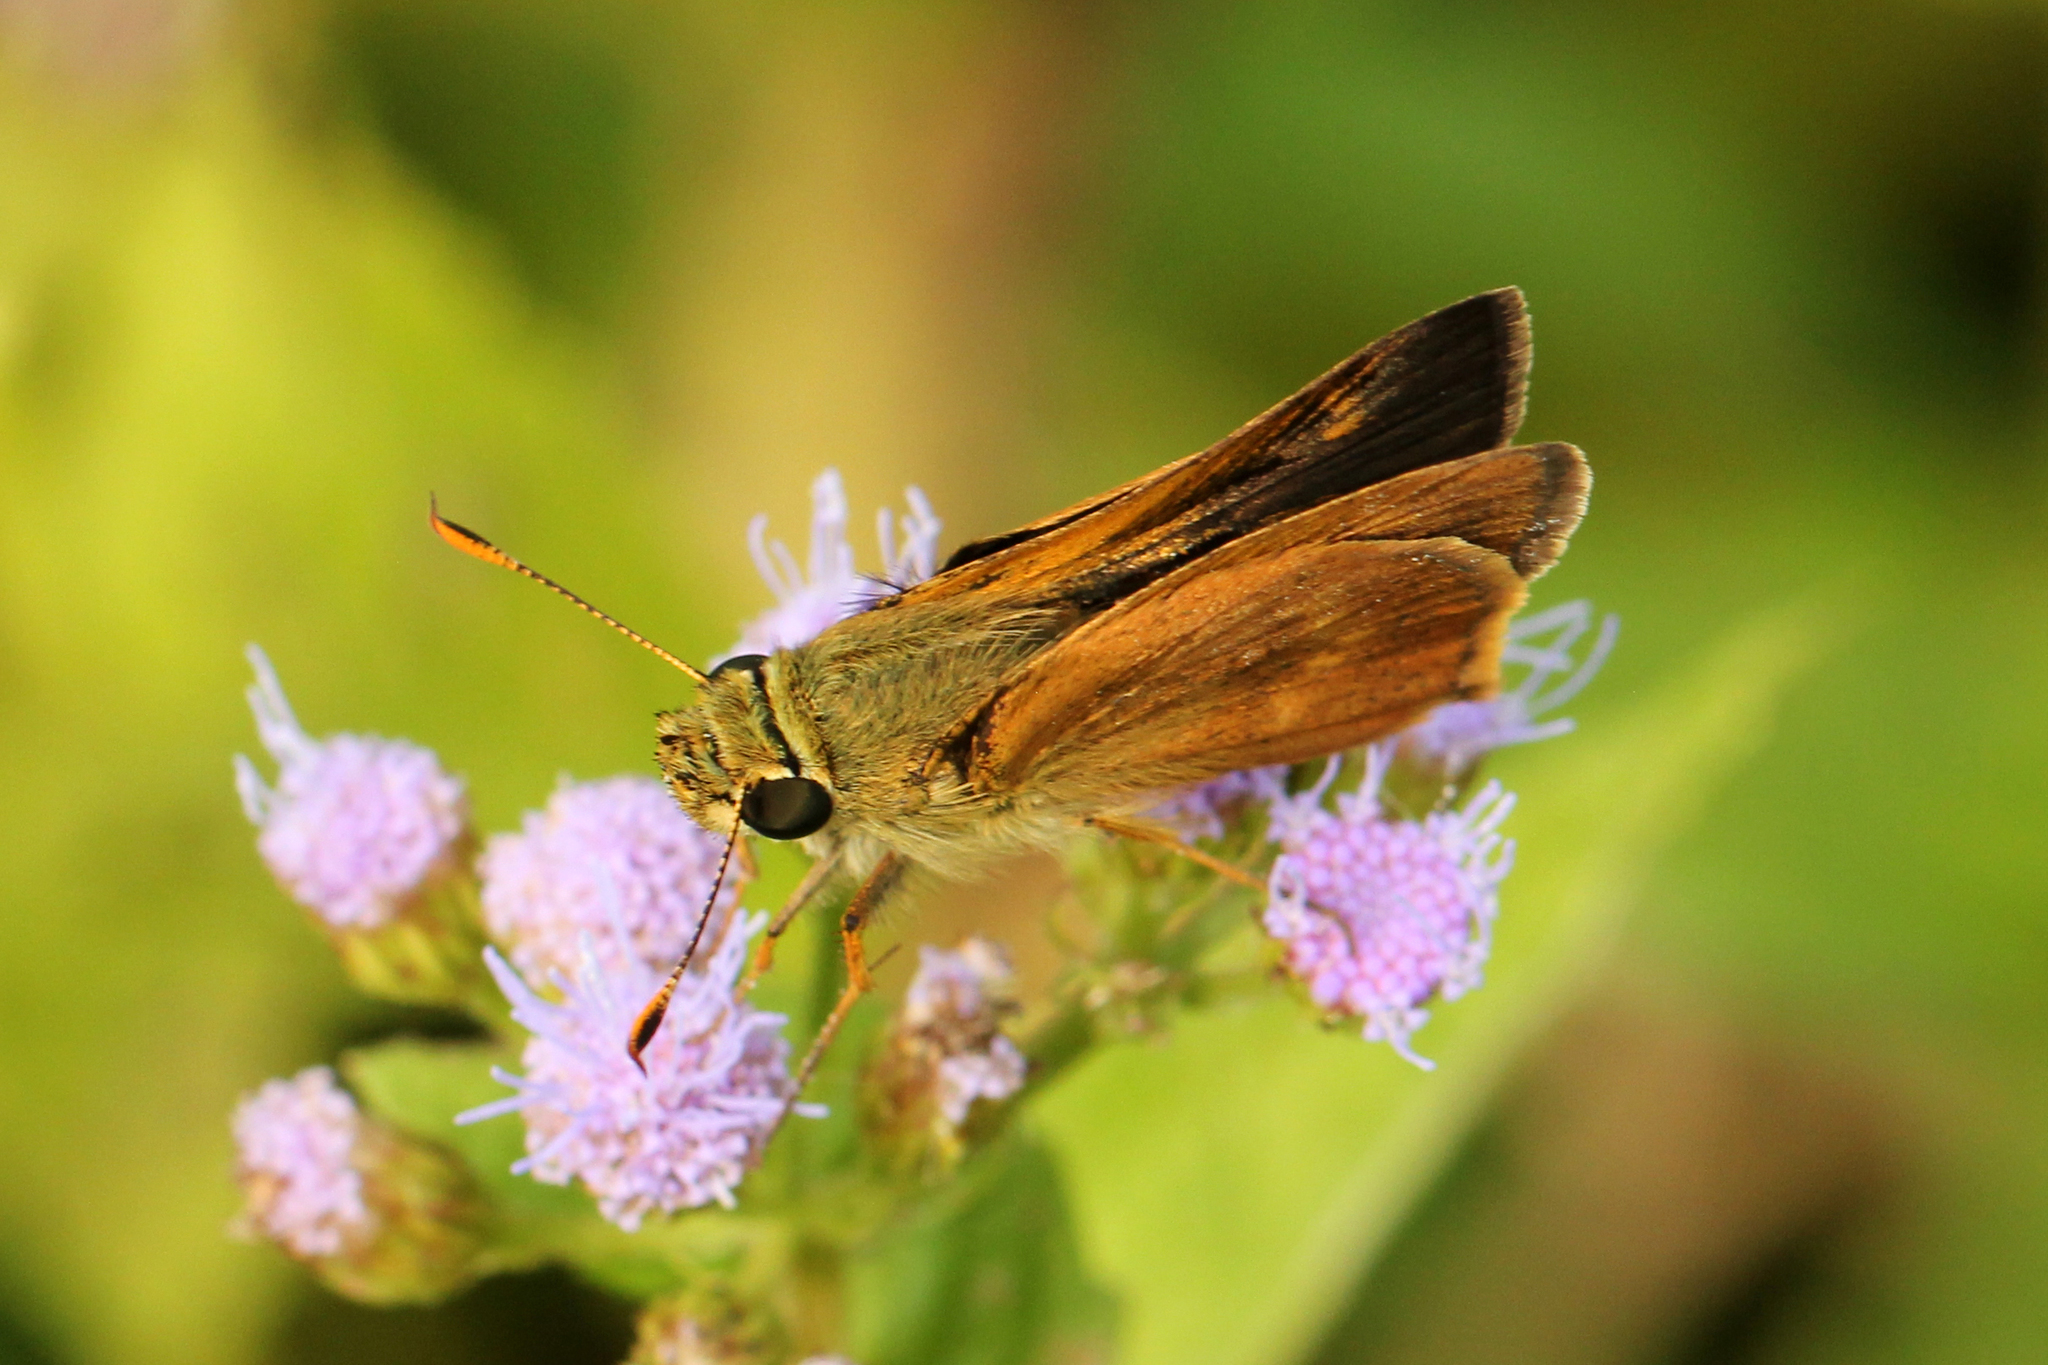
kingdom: Animalia
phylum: Arthropoda
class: Insecta
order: Lepidoptera
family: Hesperiidae
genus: Polites
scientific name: Polites otho
